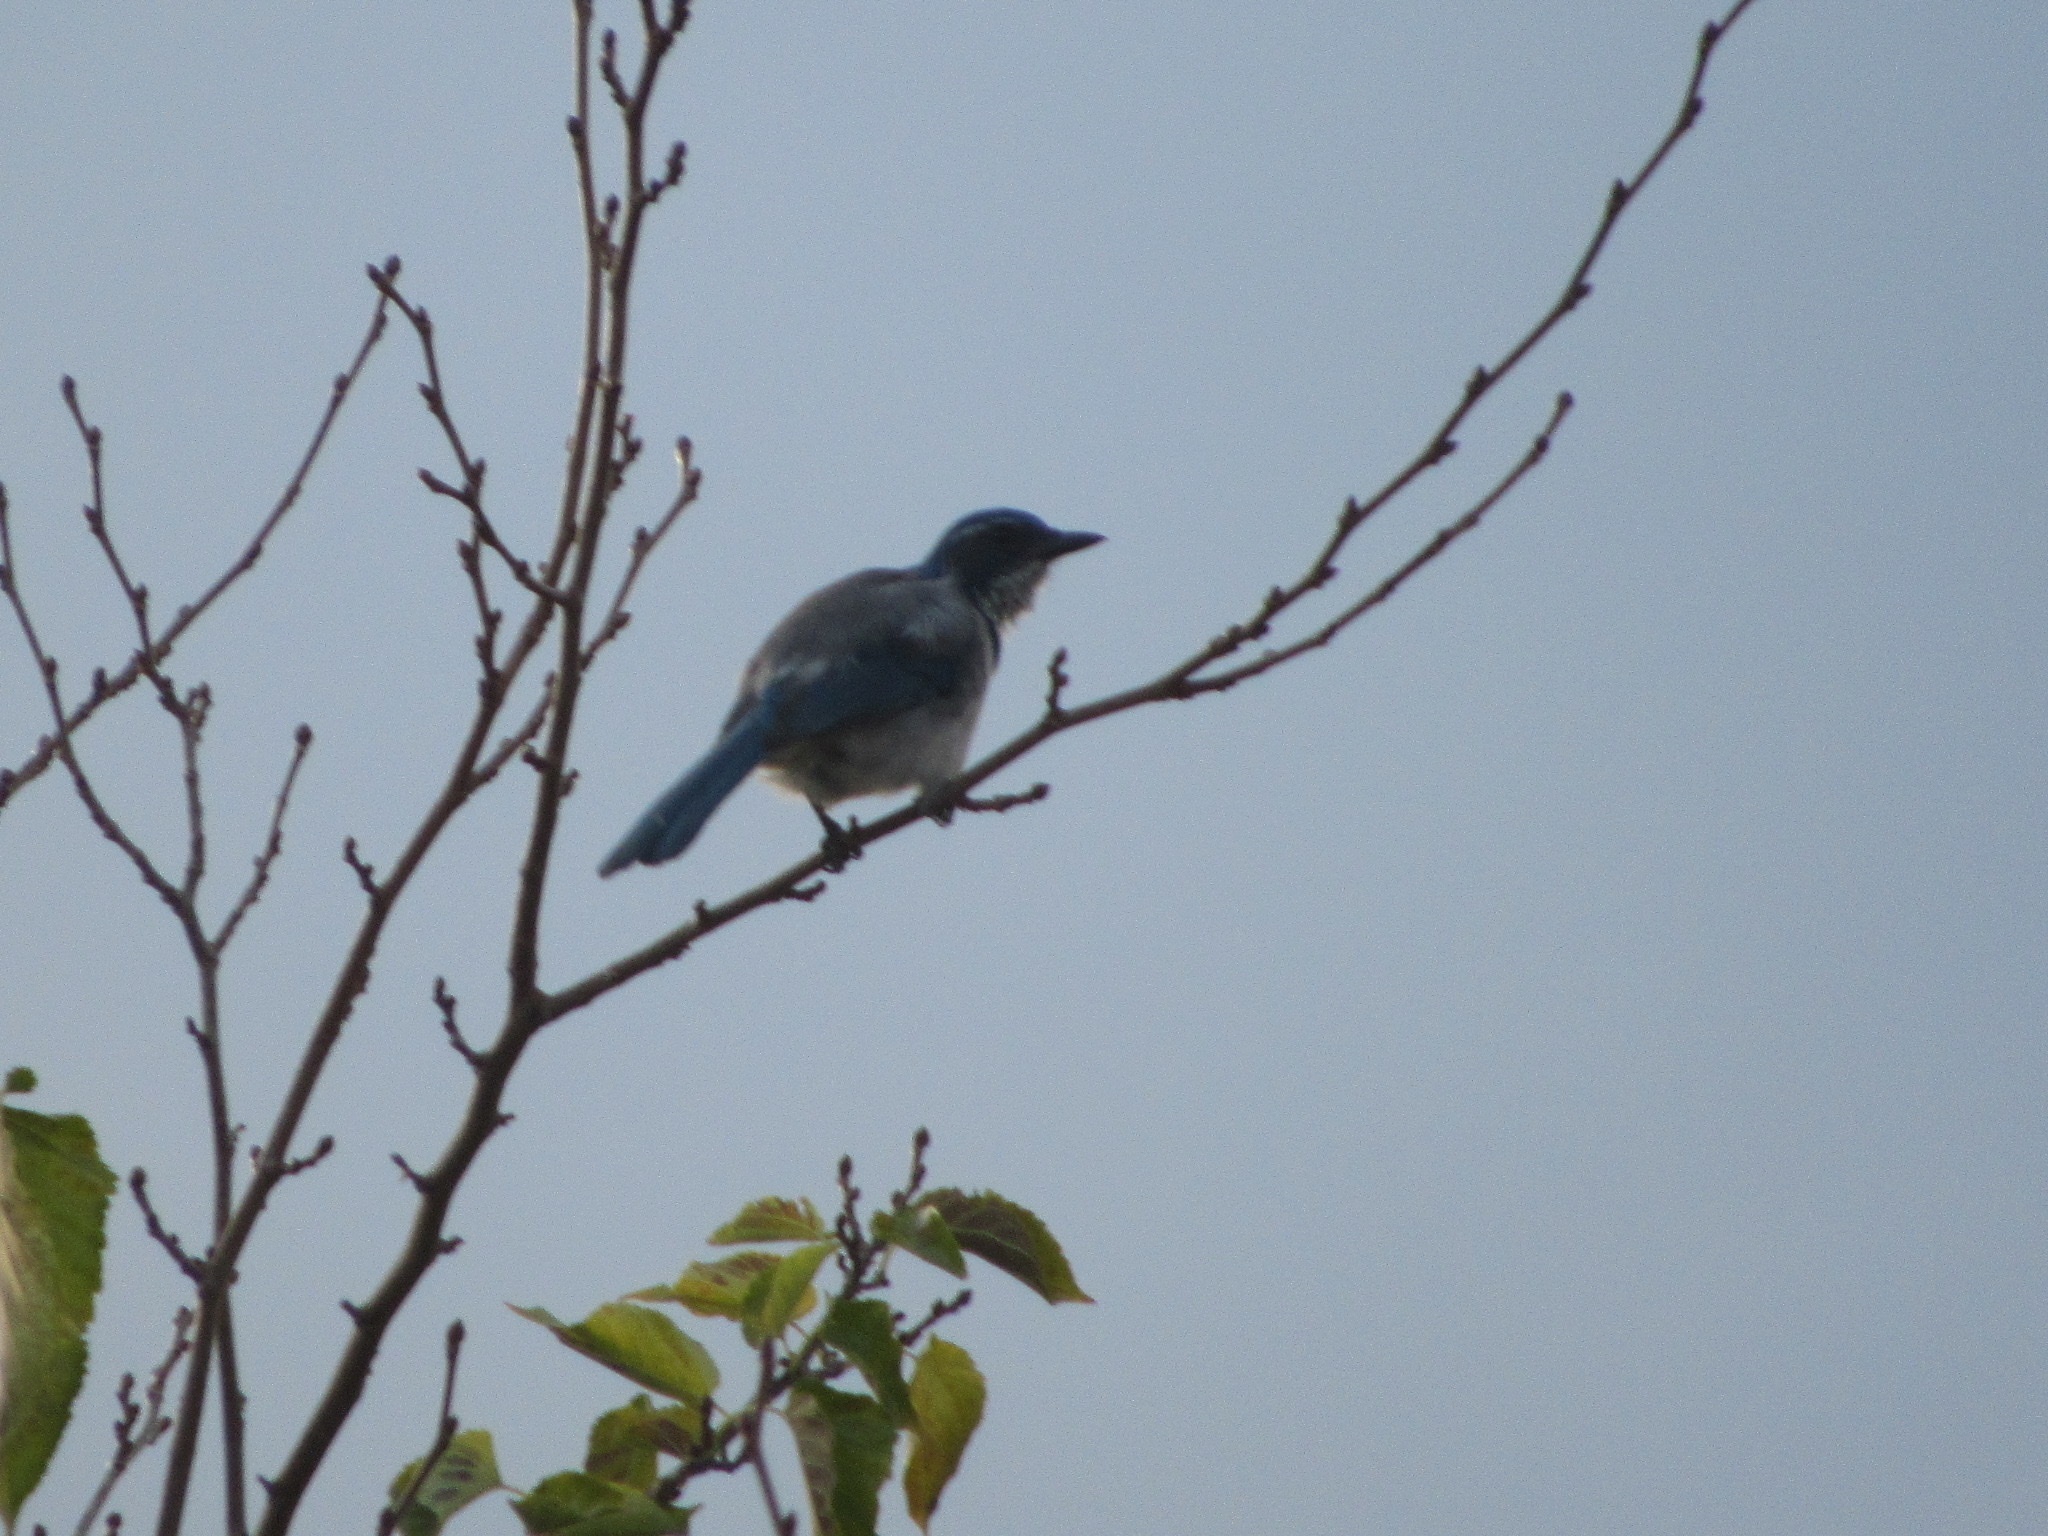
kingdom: Animalia
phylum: Chordata
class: Aves
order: Passeriformes
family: Corvidae
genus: Aphelocoma
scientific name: Aphelocoma californica
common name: California scrub-jay
